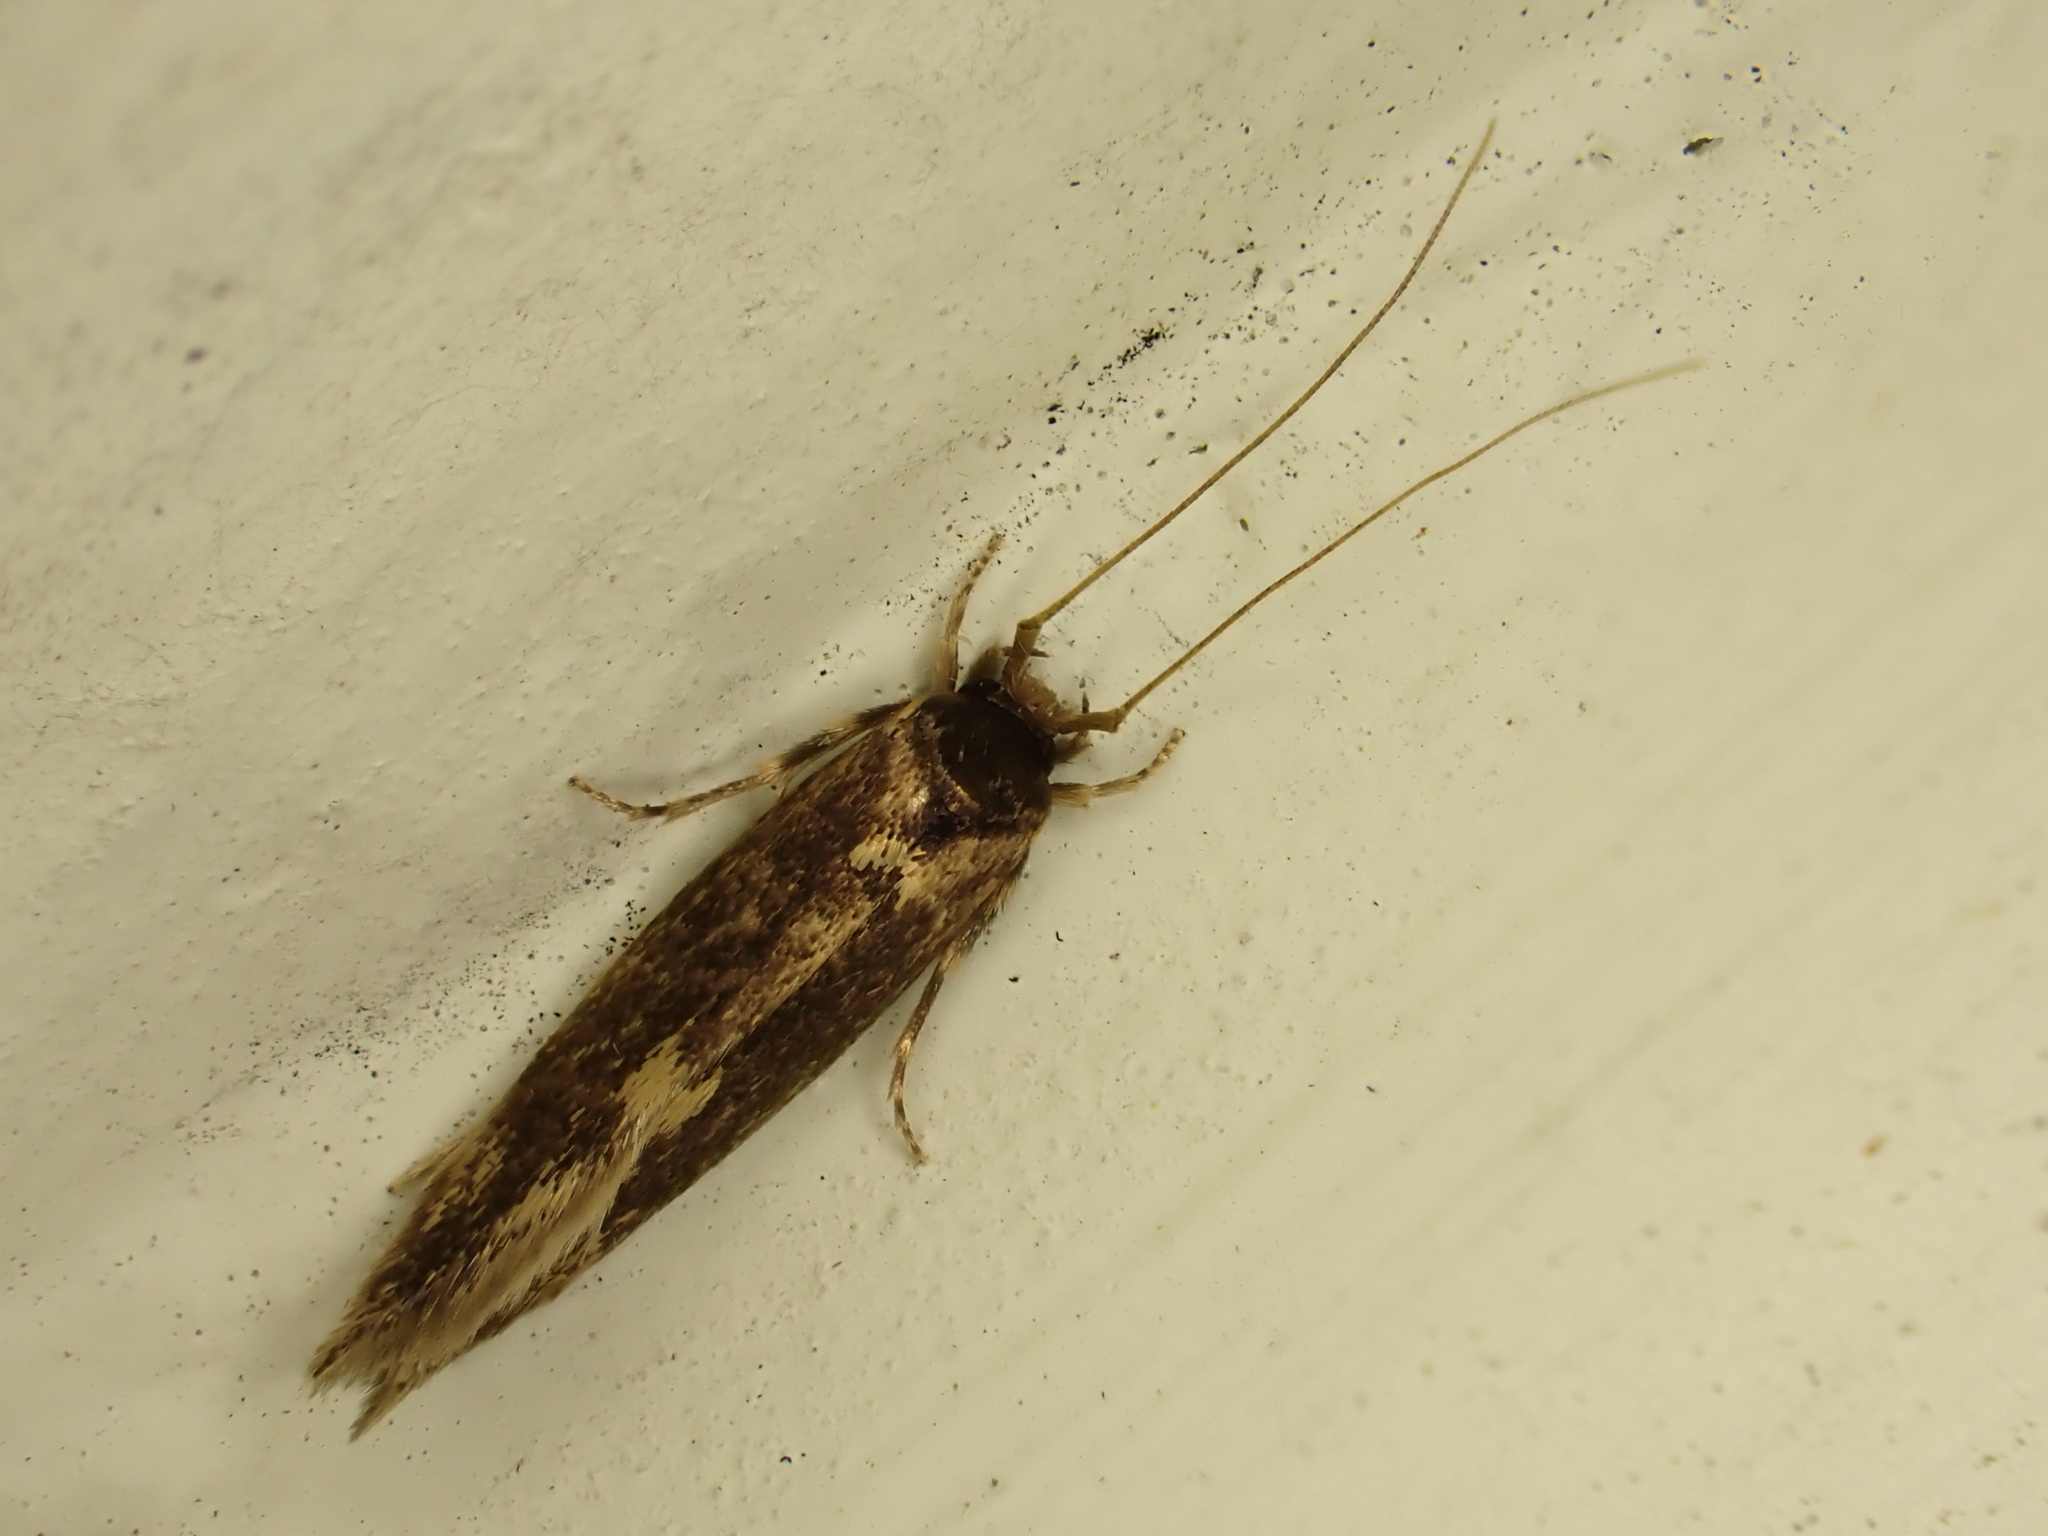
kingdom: Animalia
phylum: Arthropoda
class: Insecta
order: Lepidoptera
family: Tineidae
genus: Opogona
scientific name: Opogona omoscopa
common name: Moth
